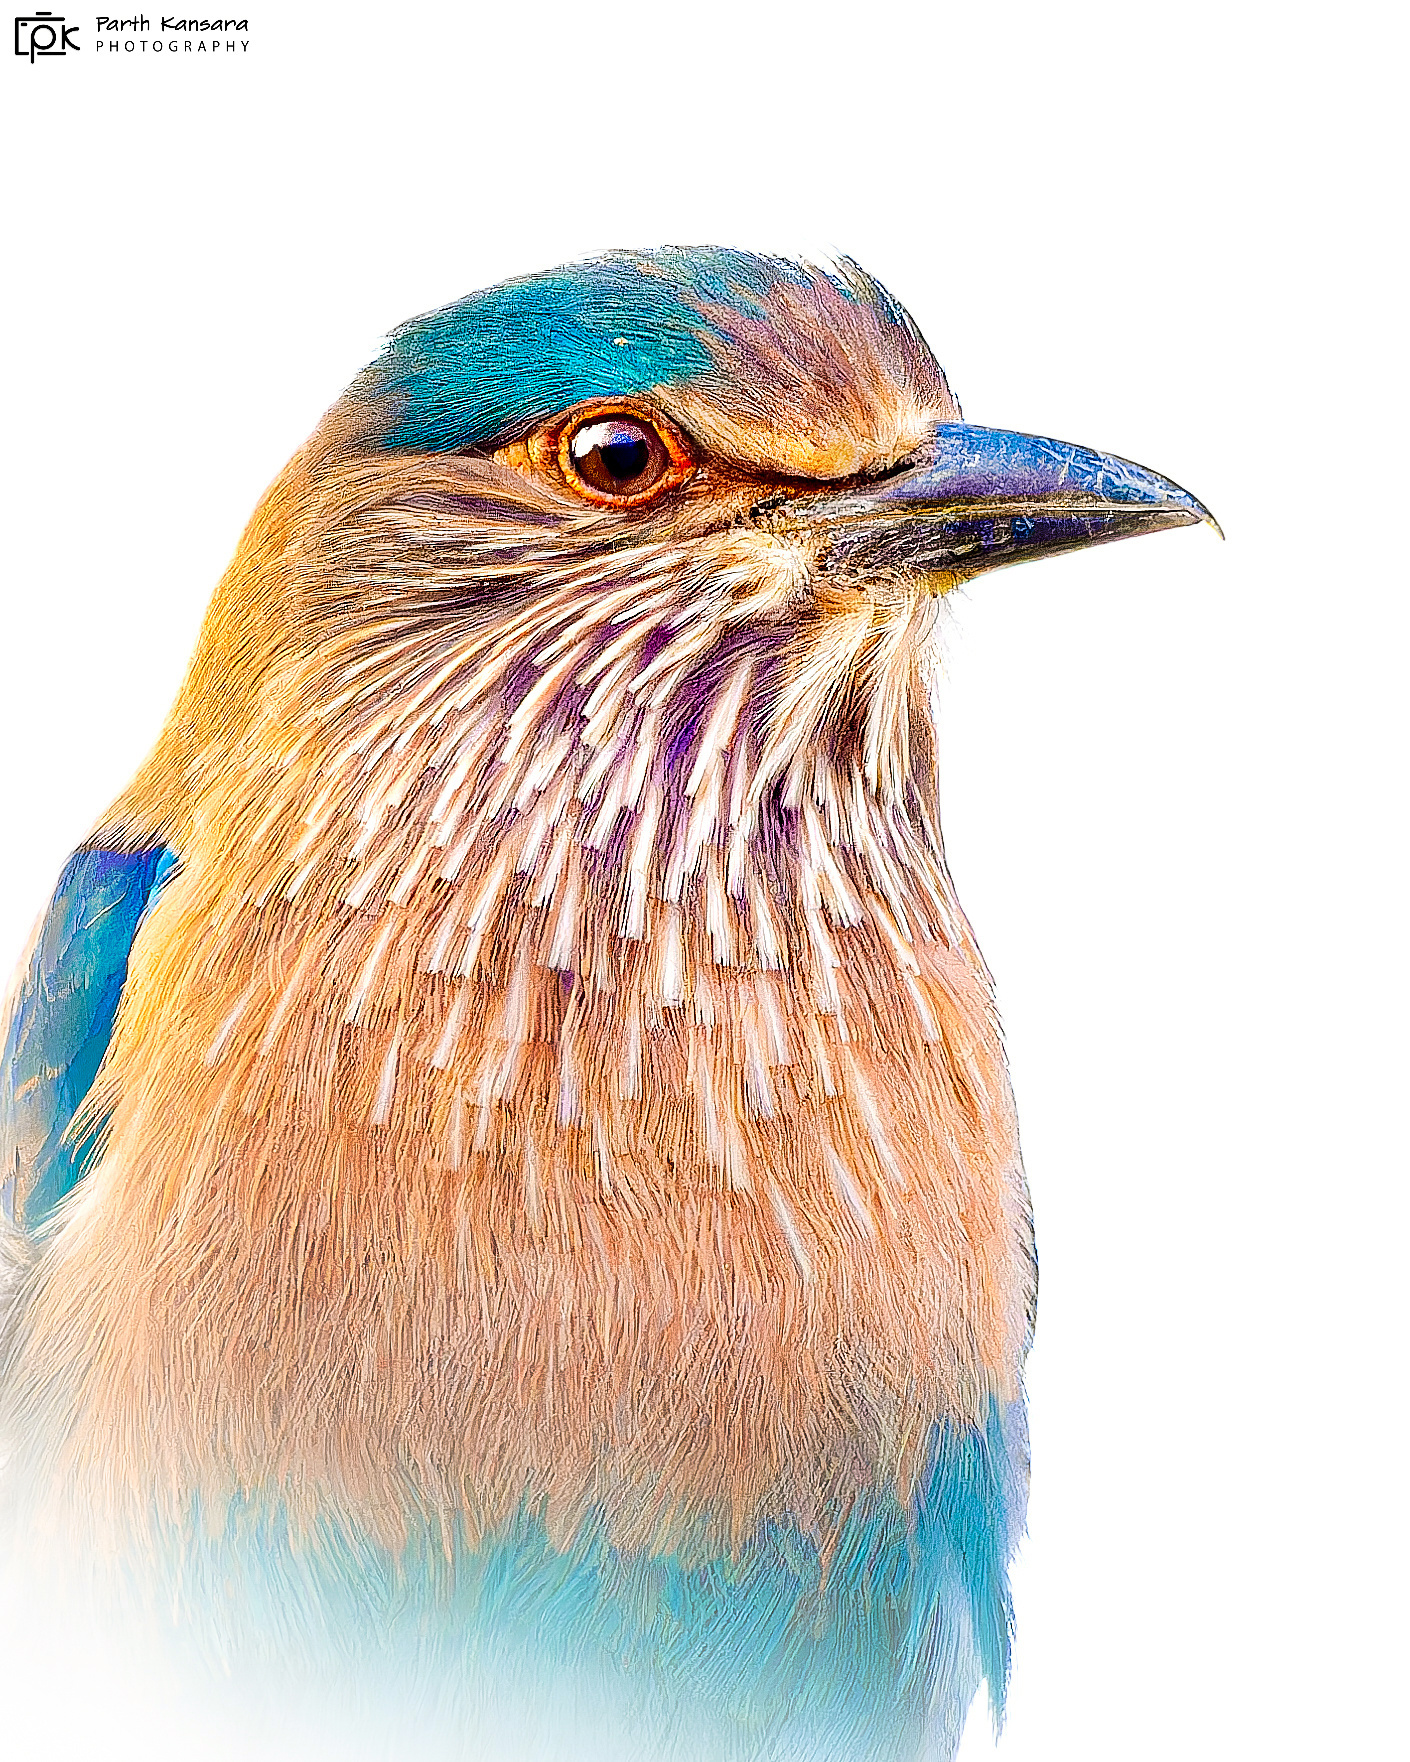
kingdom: Animalia
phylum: Chordata
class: Aves
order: Coraciiformes
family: Coraciidae
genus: Coracias
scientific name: Coracias benghalensis
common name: Indian roller
